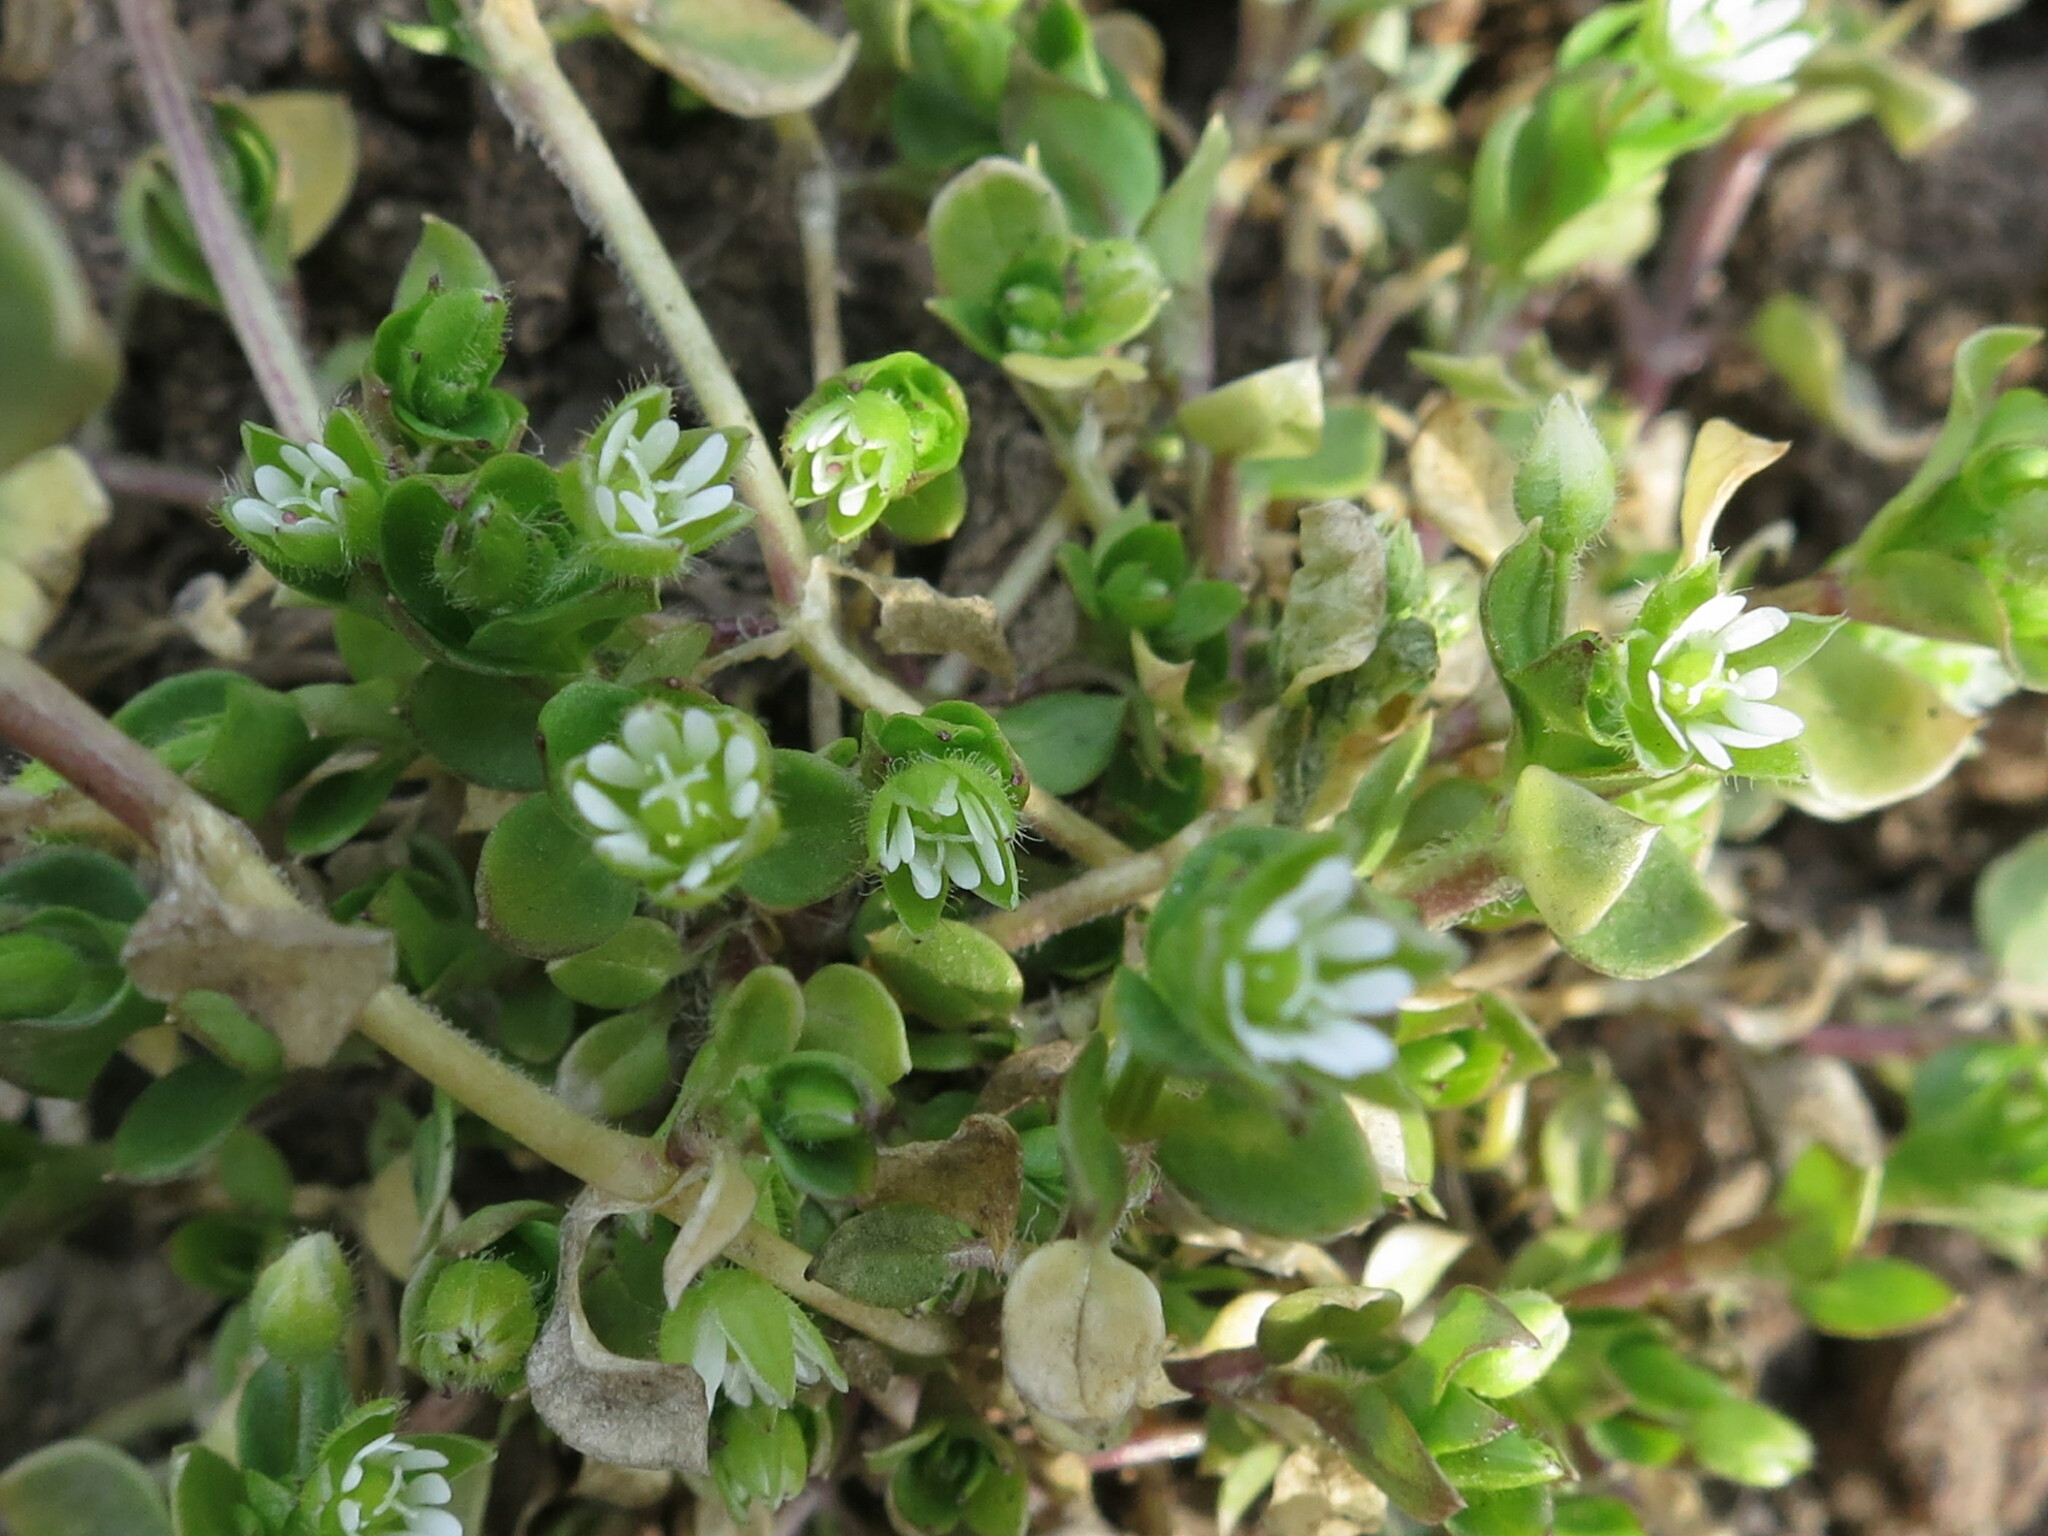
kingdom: Plantae
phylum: Tracheophyta
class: Magnoliopsida
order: Caryophyllales
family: Caryophyllaceae
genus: Stellaria
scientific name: Stellaria media
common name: Common chickweed
